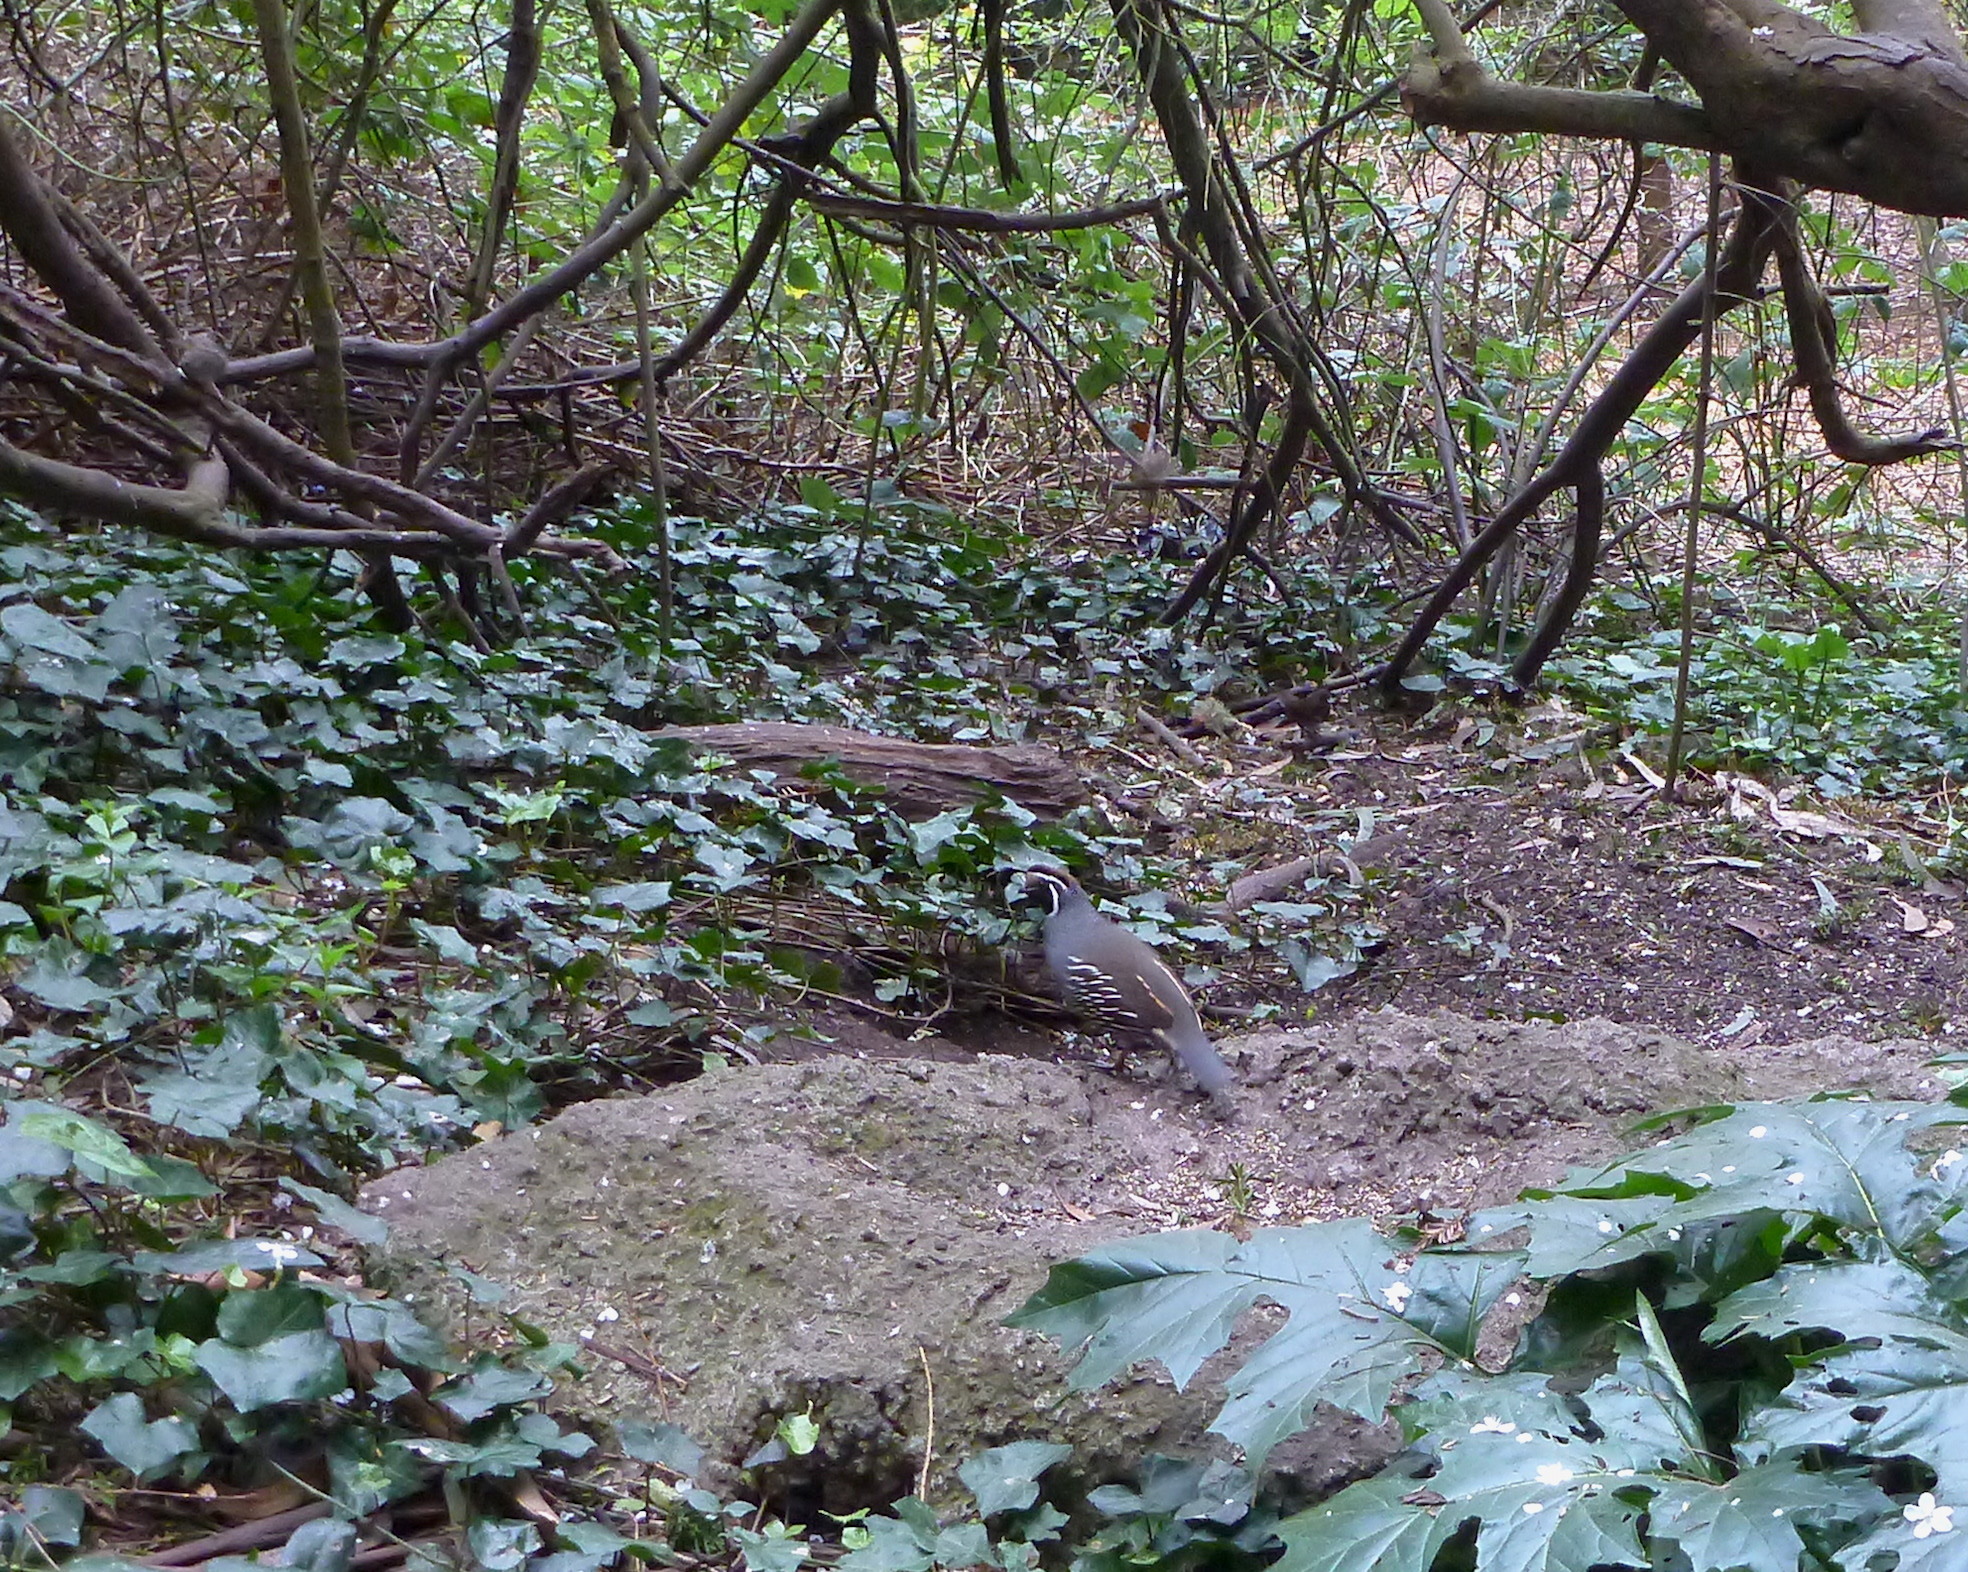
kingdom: Animalia
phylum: Chordata
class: Aves
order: Galliformes
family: Odontophoridae
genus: Callipepla
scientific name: Callipepla californica
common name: California quail
